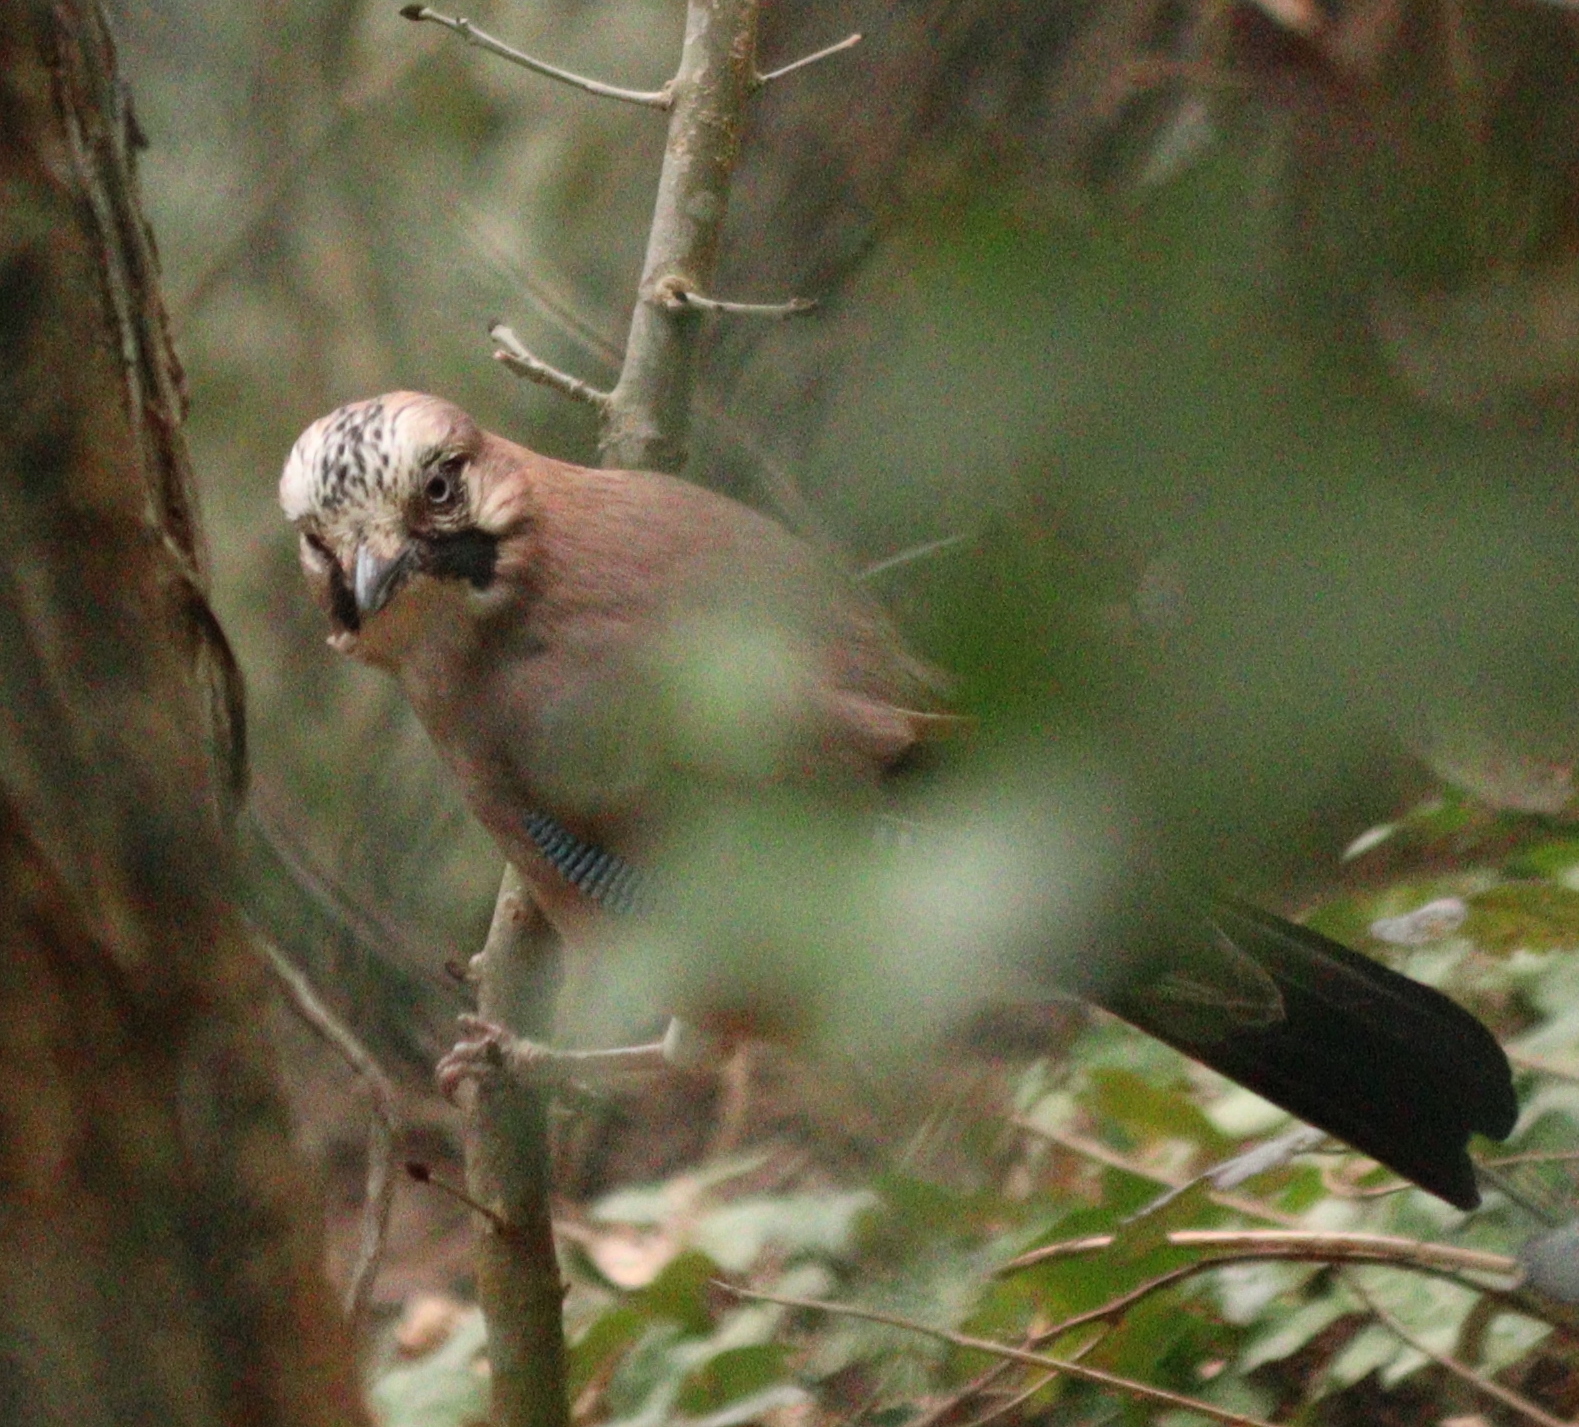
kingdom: Animalia
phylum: Chordata
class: Aves
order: Passeriformes
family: Corvidae
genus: Garrulus
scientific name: Garrulus glandarius
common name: Eurasian jay
